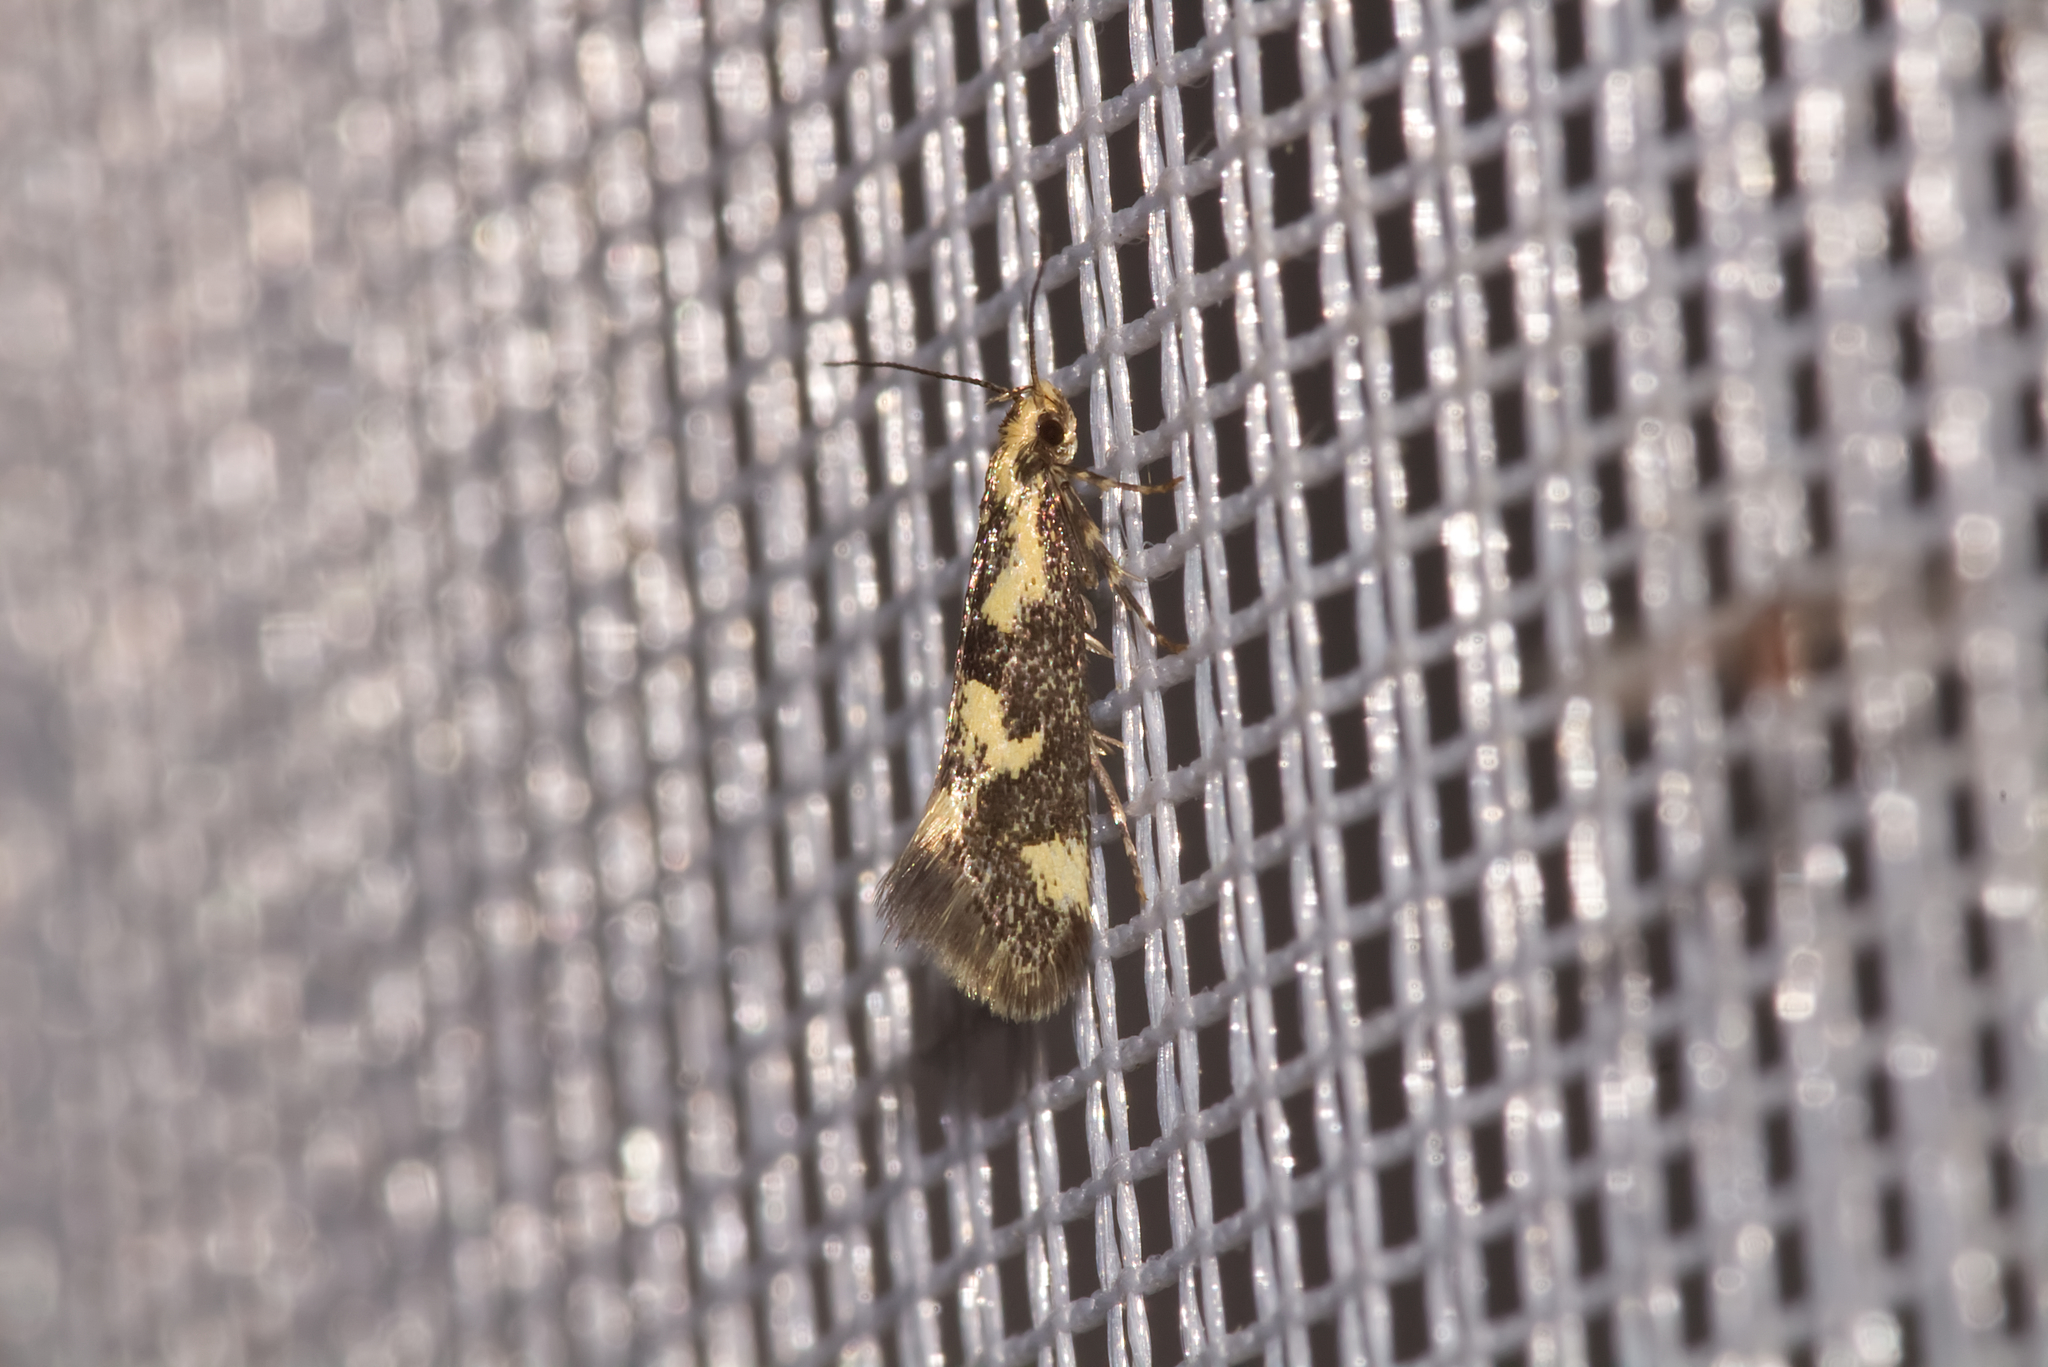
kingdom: Animalia
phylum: Arthropoda
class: Insecta
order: Lepidoptera
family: Oecophoridae
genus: Denisia
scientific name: Denisia stipella
